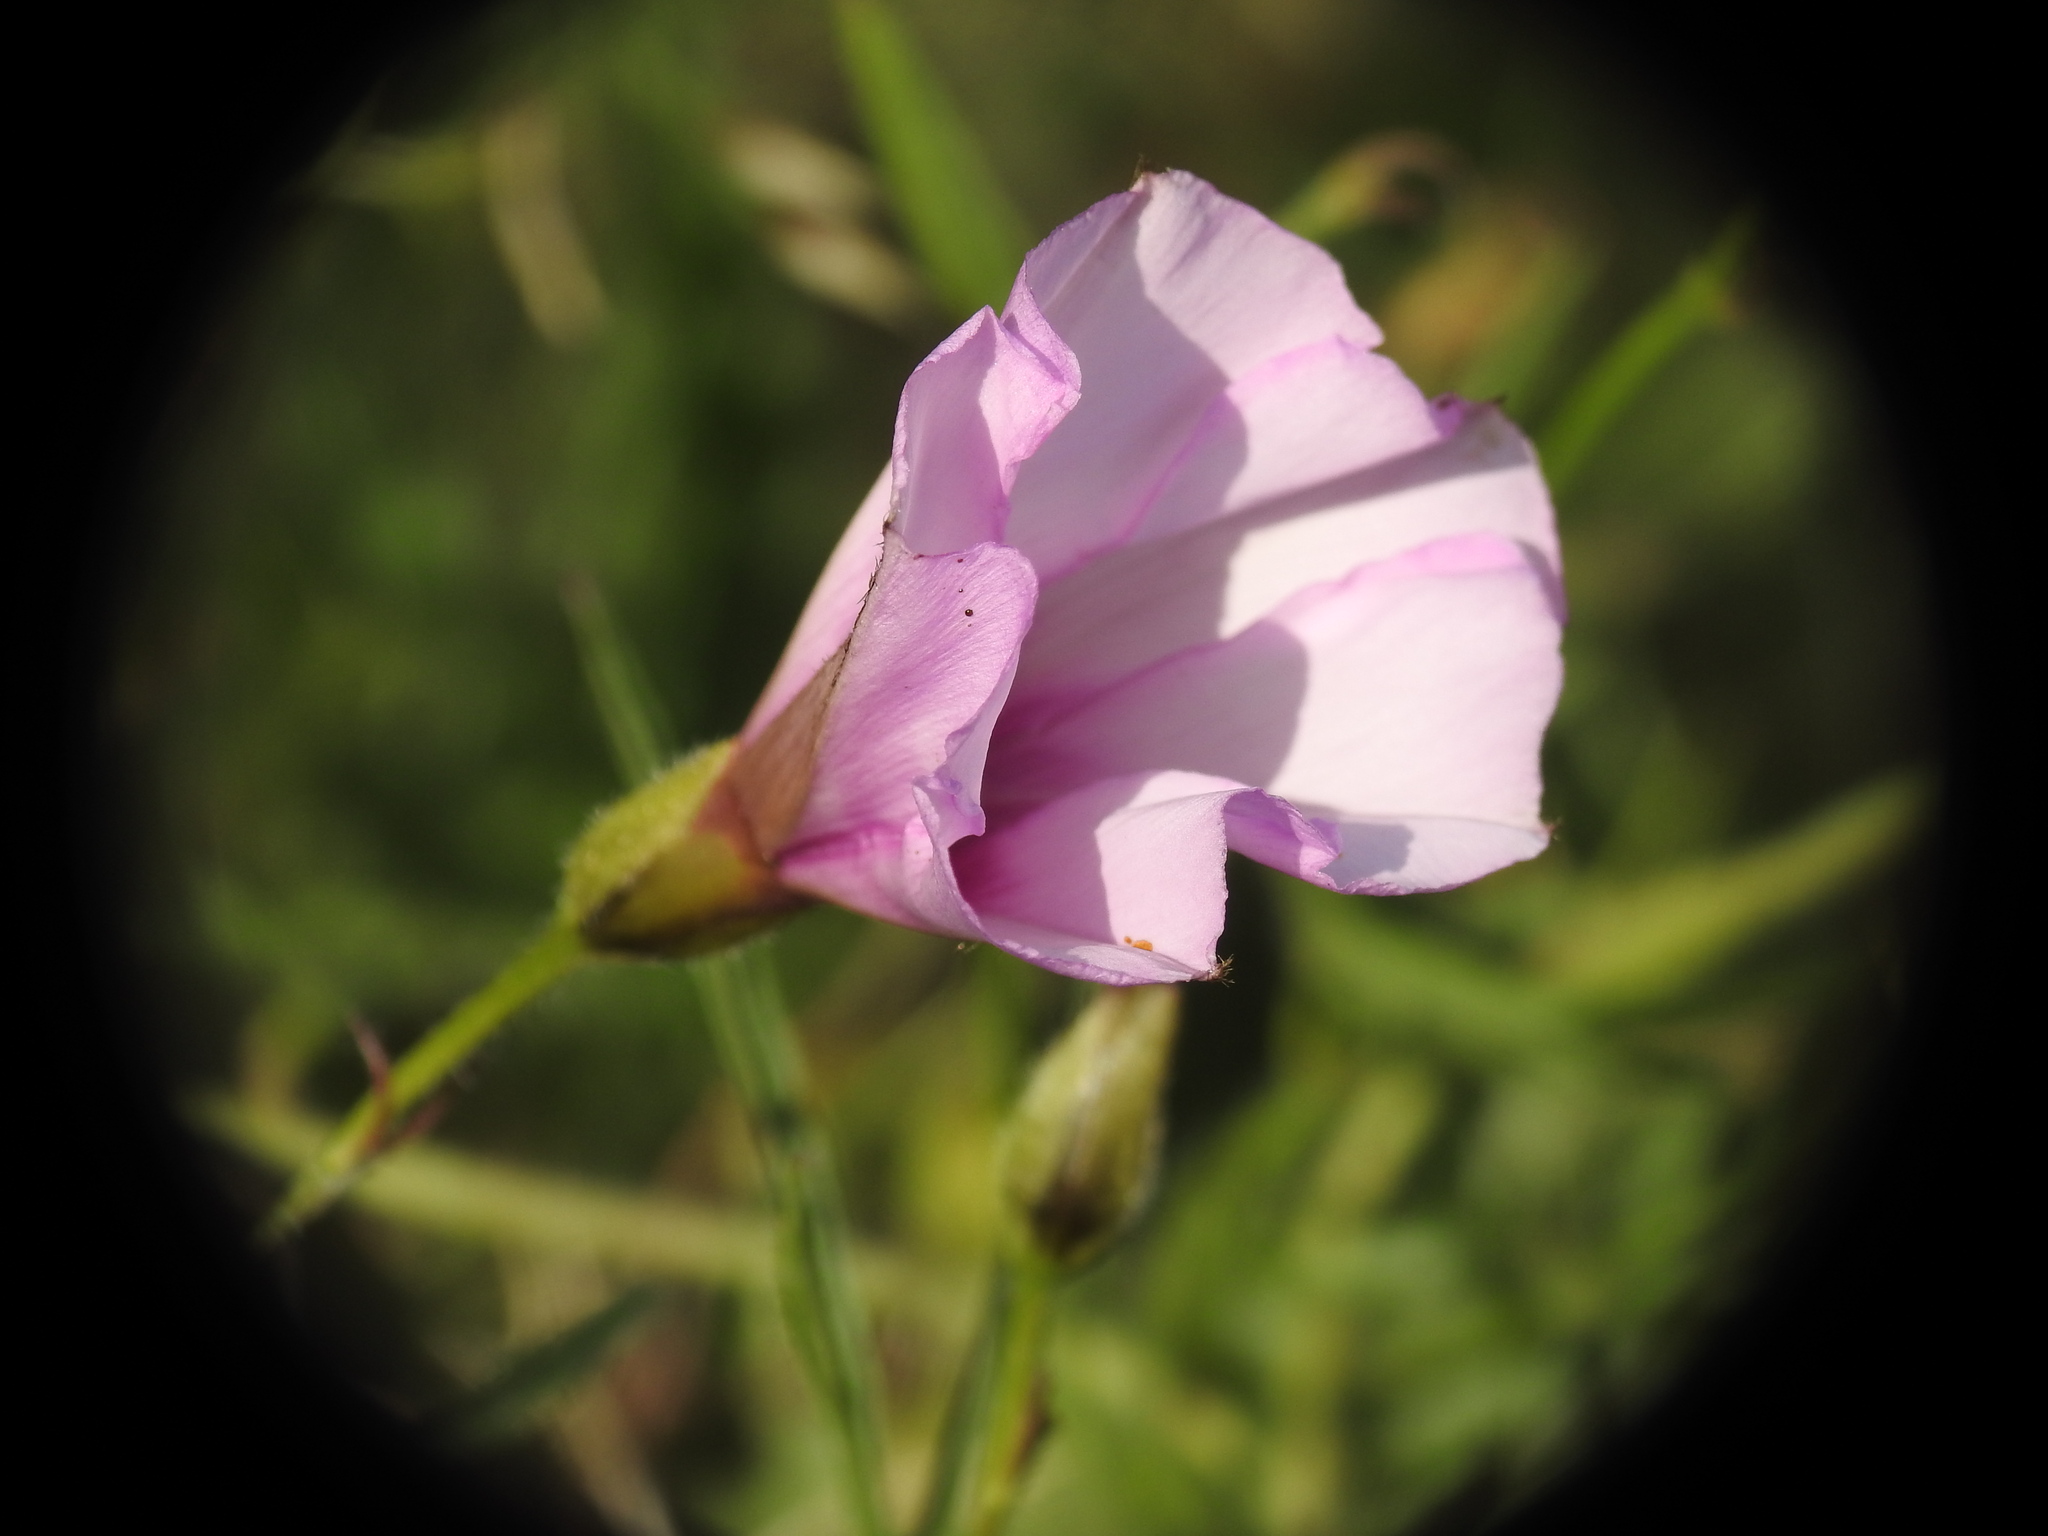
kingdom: Plantae
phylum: Tracheophyta
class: Magnoliopsida
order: Solanales
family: Convolvulaceae
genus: Convolvulus
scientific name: Convolvulus althaeoides
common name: Mallow bindweed
